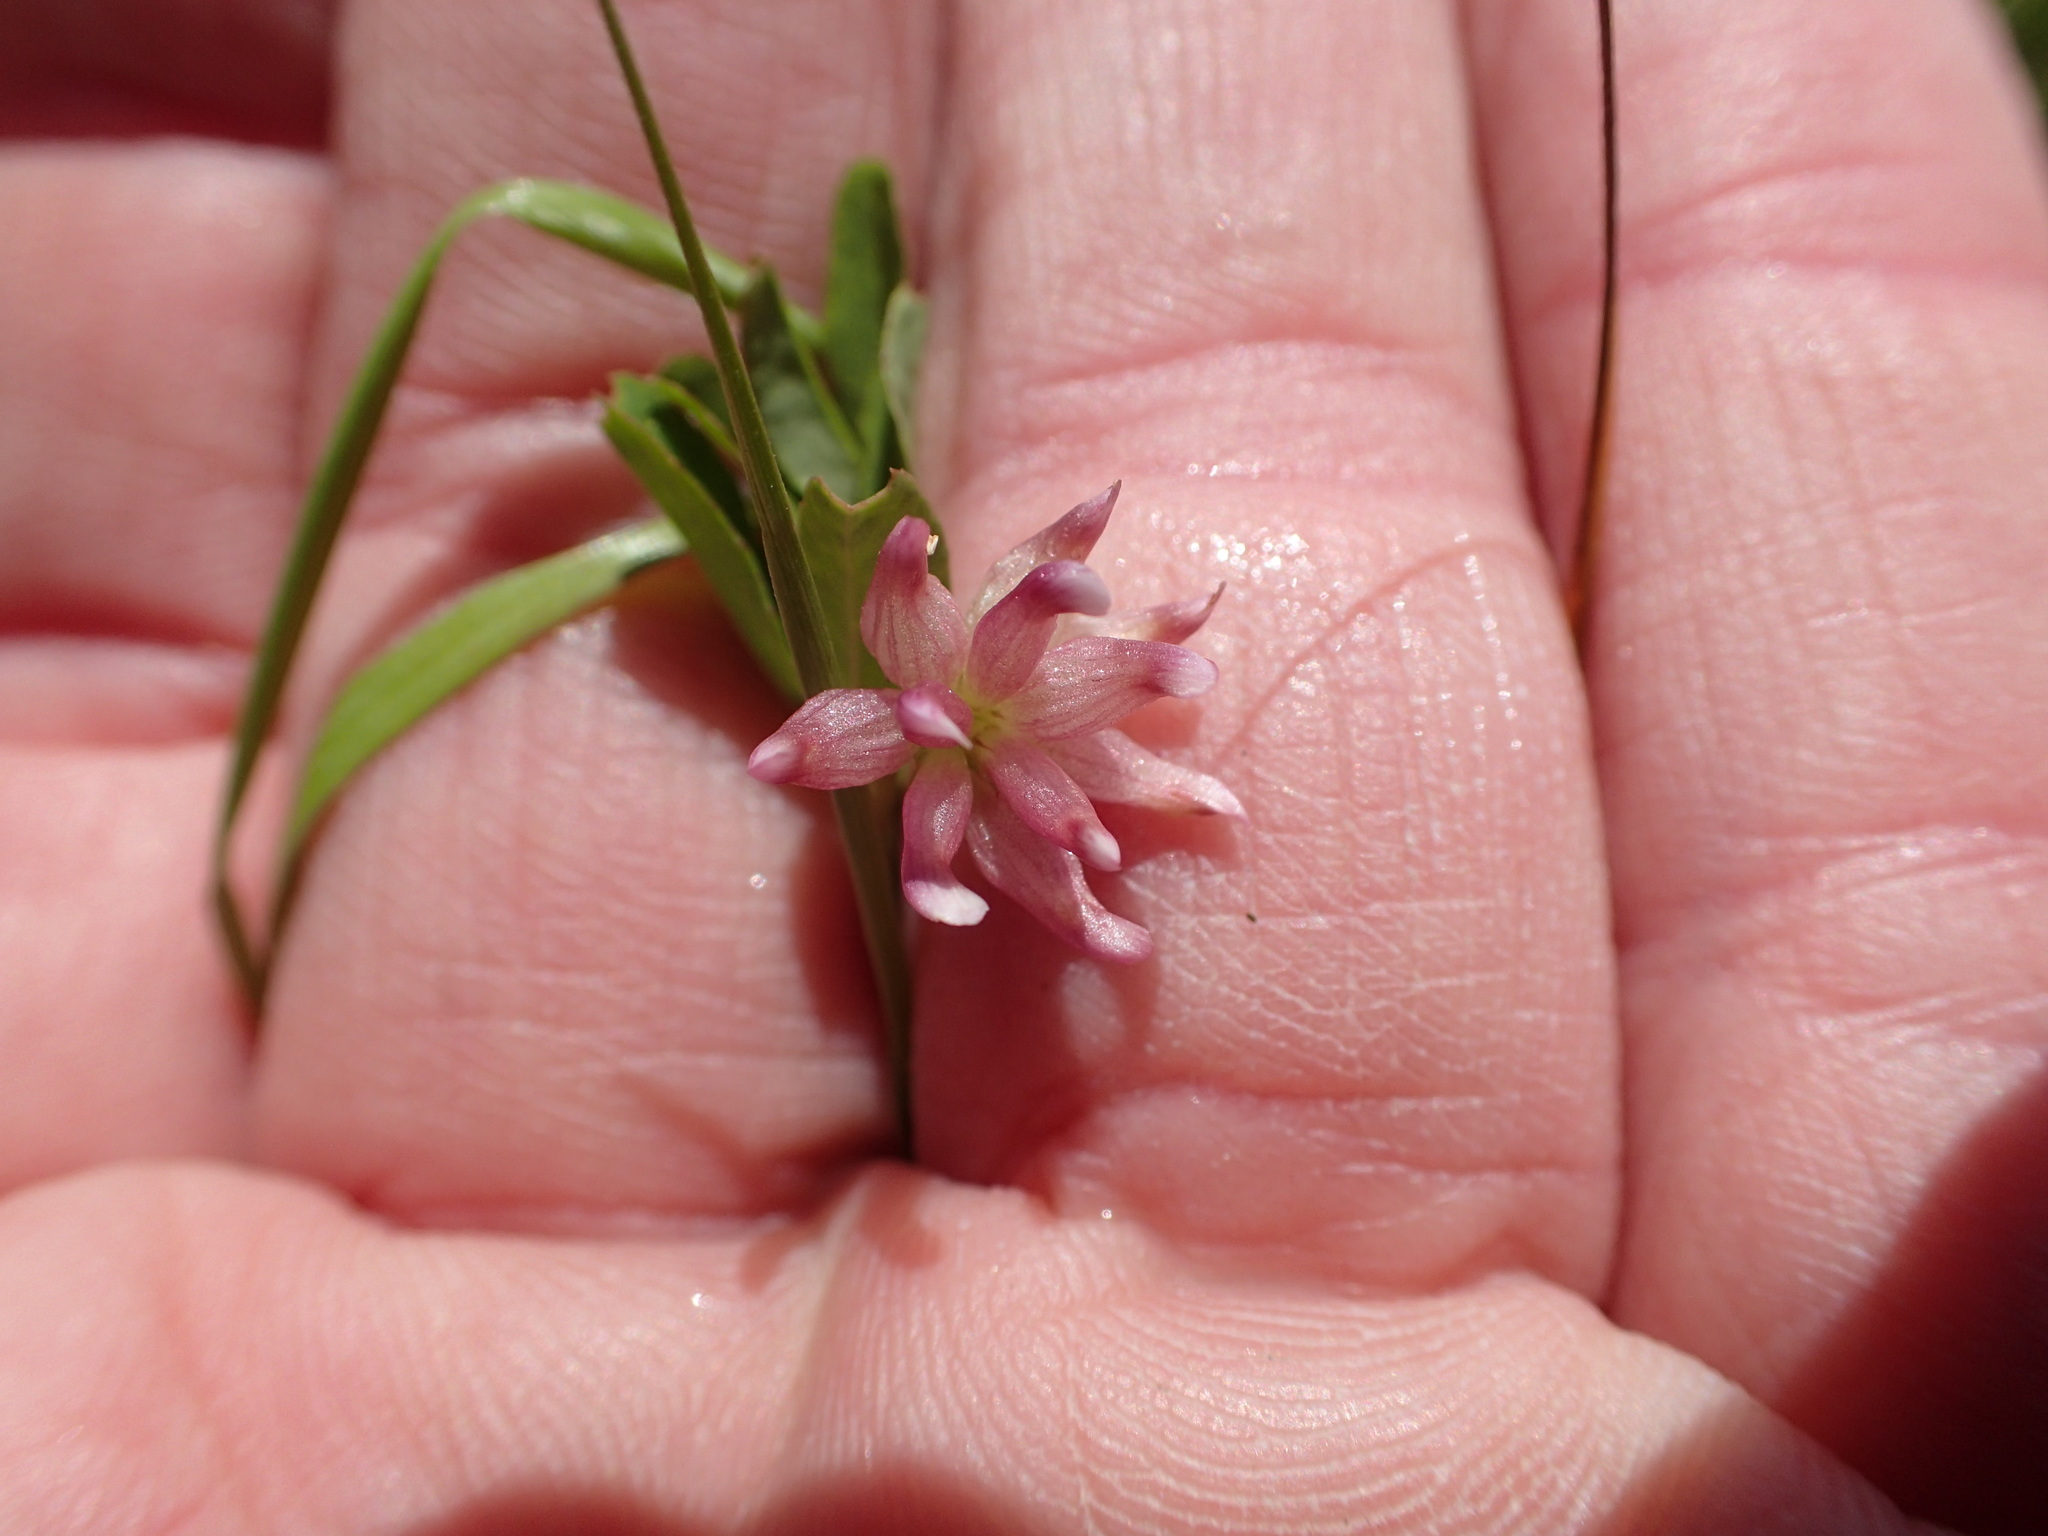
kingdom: Plantae
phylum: Tracheophyta
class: Magnoliopsida
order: Fabales
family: Fabaceae
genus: Trifolium
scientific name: Trifolium depauperatum
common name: Poverty clover
